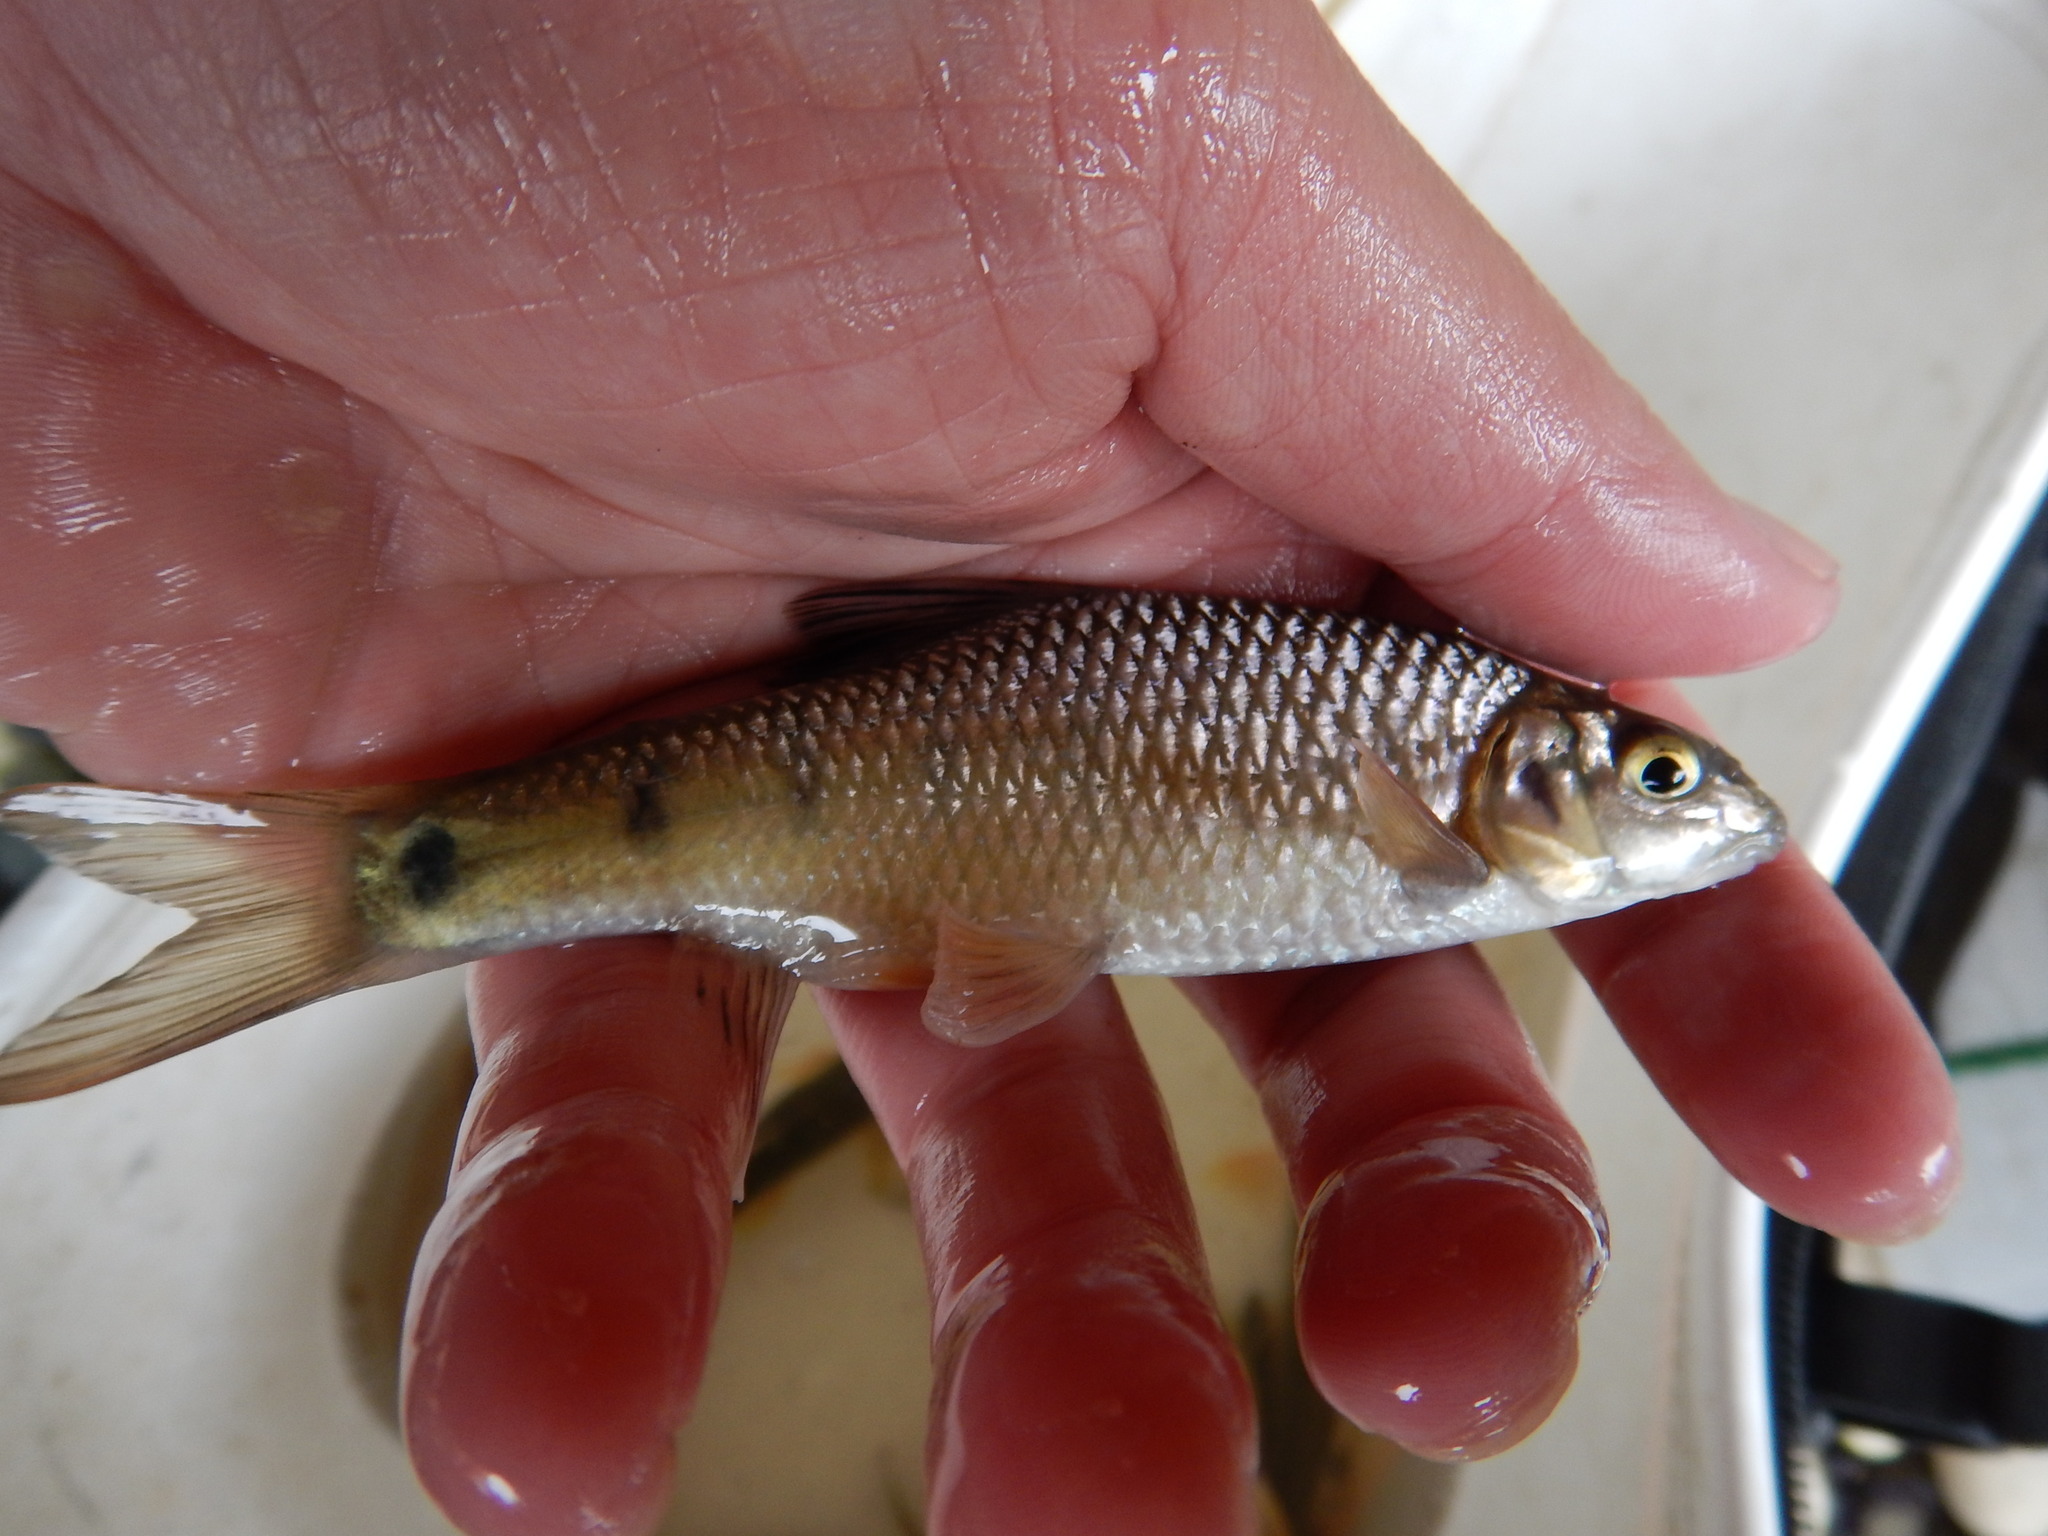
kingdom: Animalia
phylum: Chordata
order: Cypriniformes
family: Cyprinidae
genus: Acrossocheilus
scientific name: Acrossocheilus paradoxus
